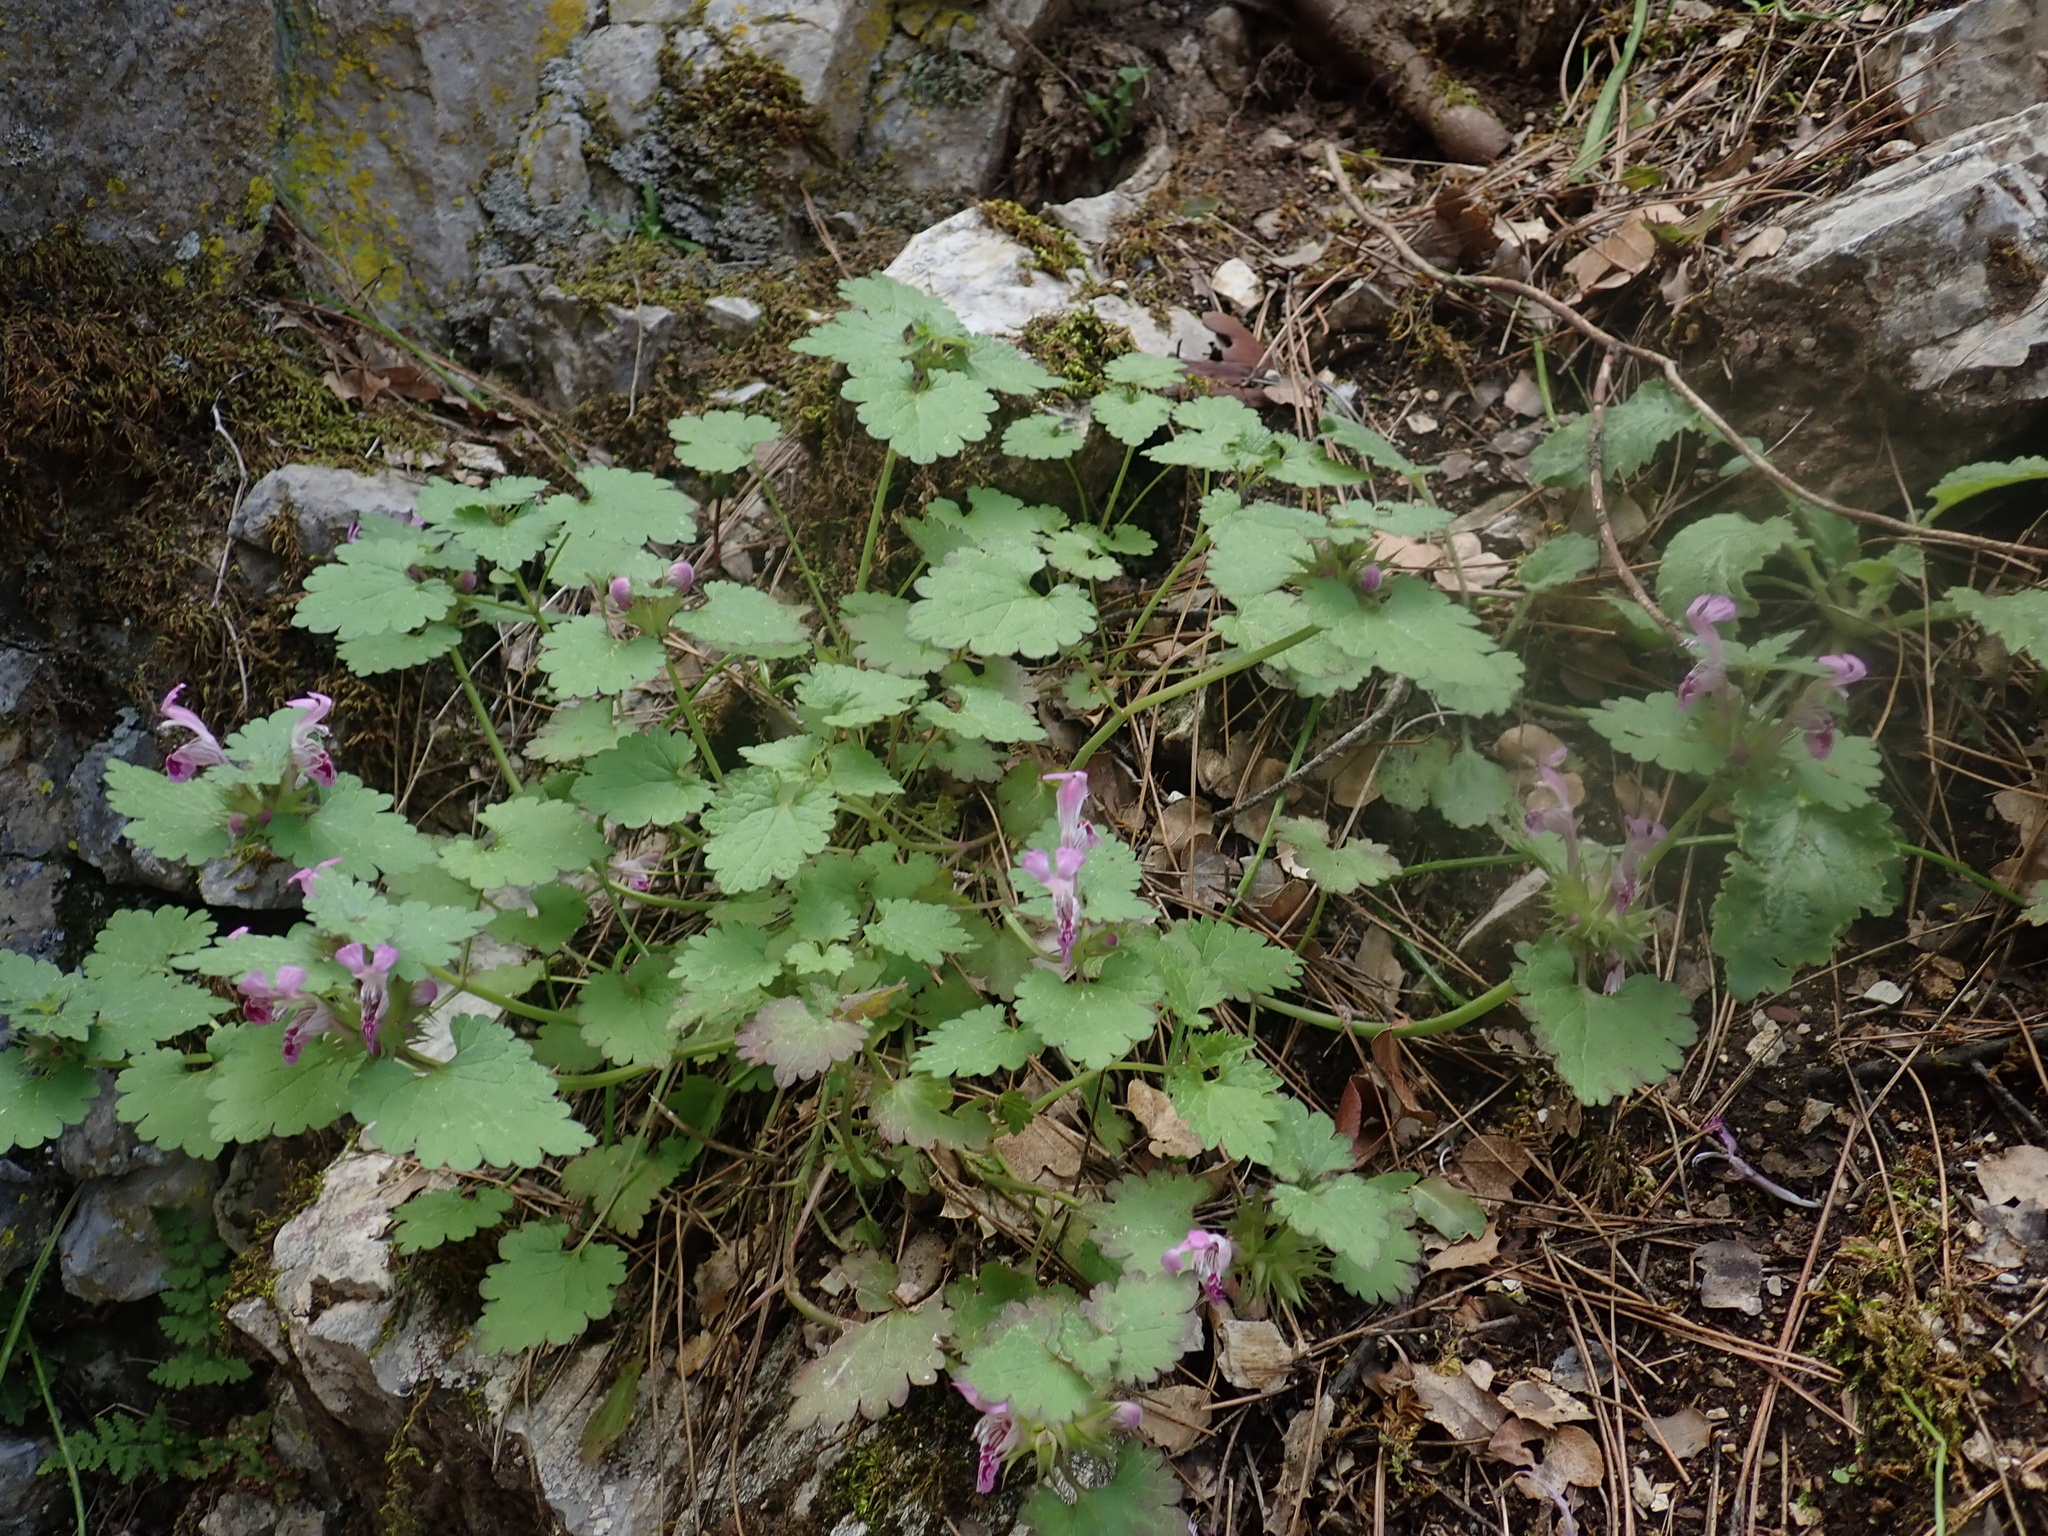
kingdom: Plantae
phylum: Tracheophyta
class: Magnoliopsida
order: Lamiales
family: Lamiaceae
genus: Lamium
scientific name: Lamium garganicum
